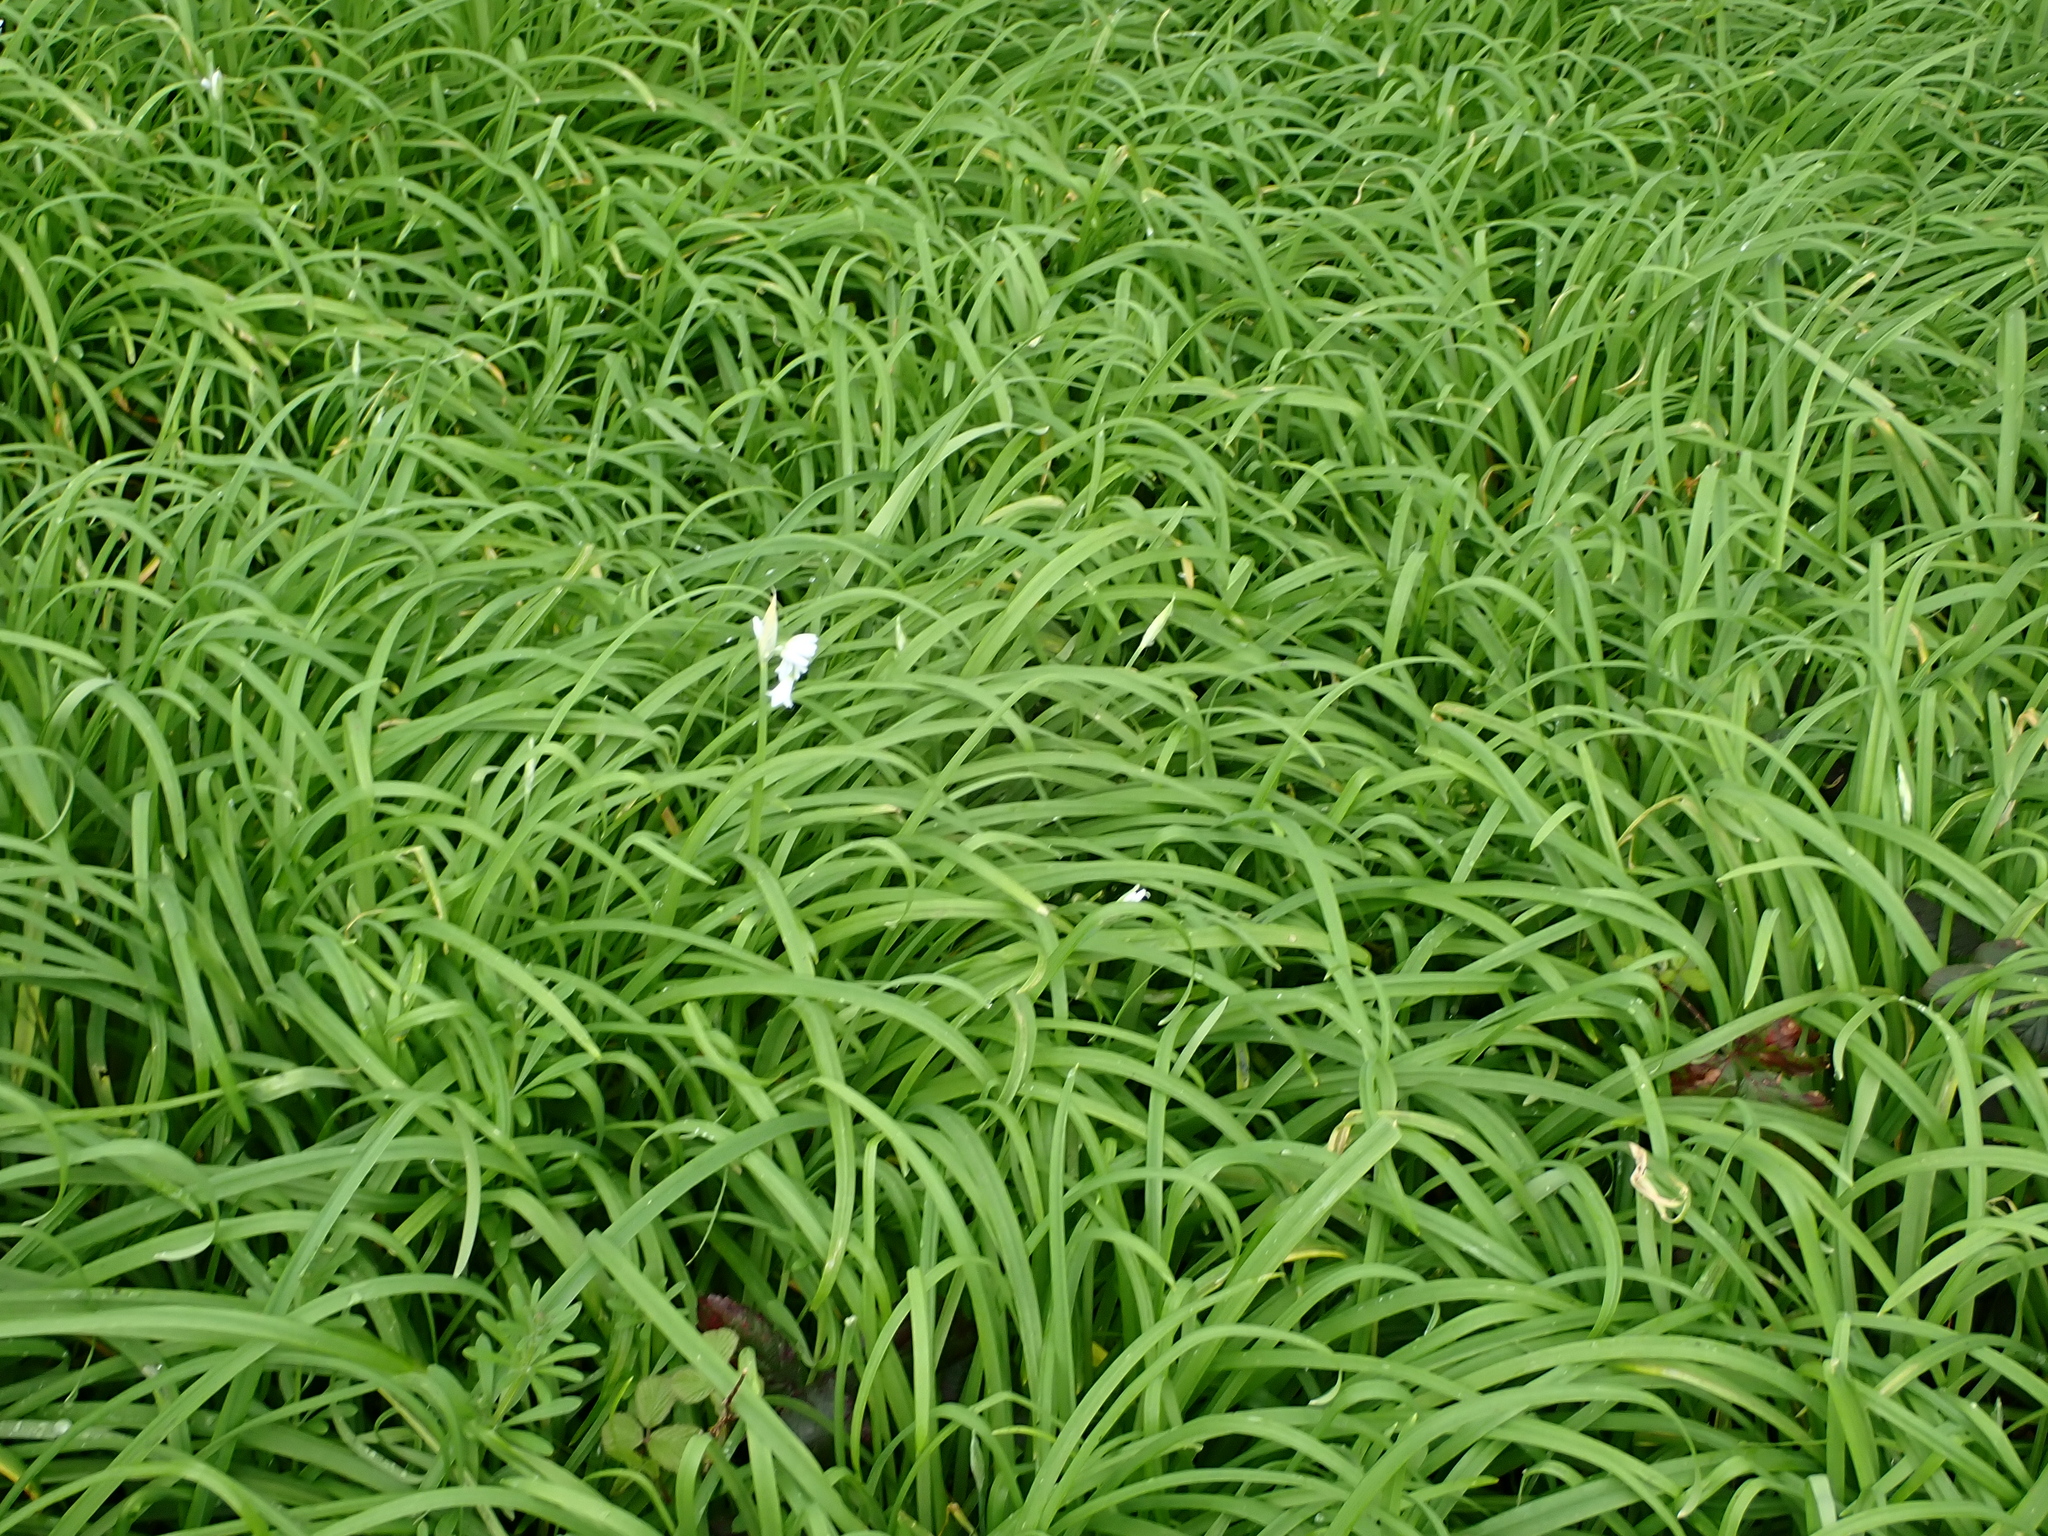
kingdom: Plantae
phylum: Tracheophyta
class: Liliopsida
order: Asparagales
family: Amaryllidaceae
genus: Allium
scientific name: Allium triquetrum
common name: Three-cornered garlic
